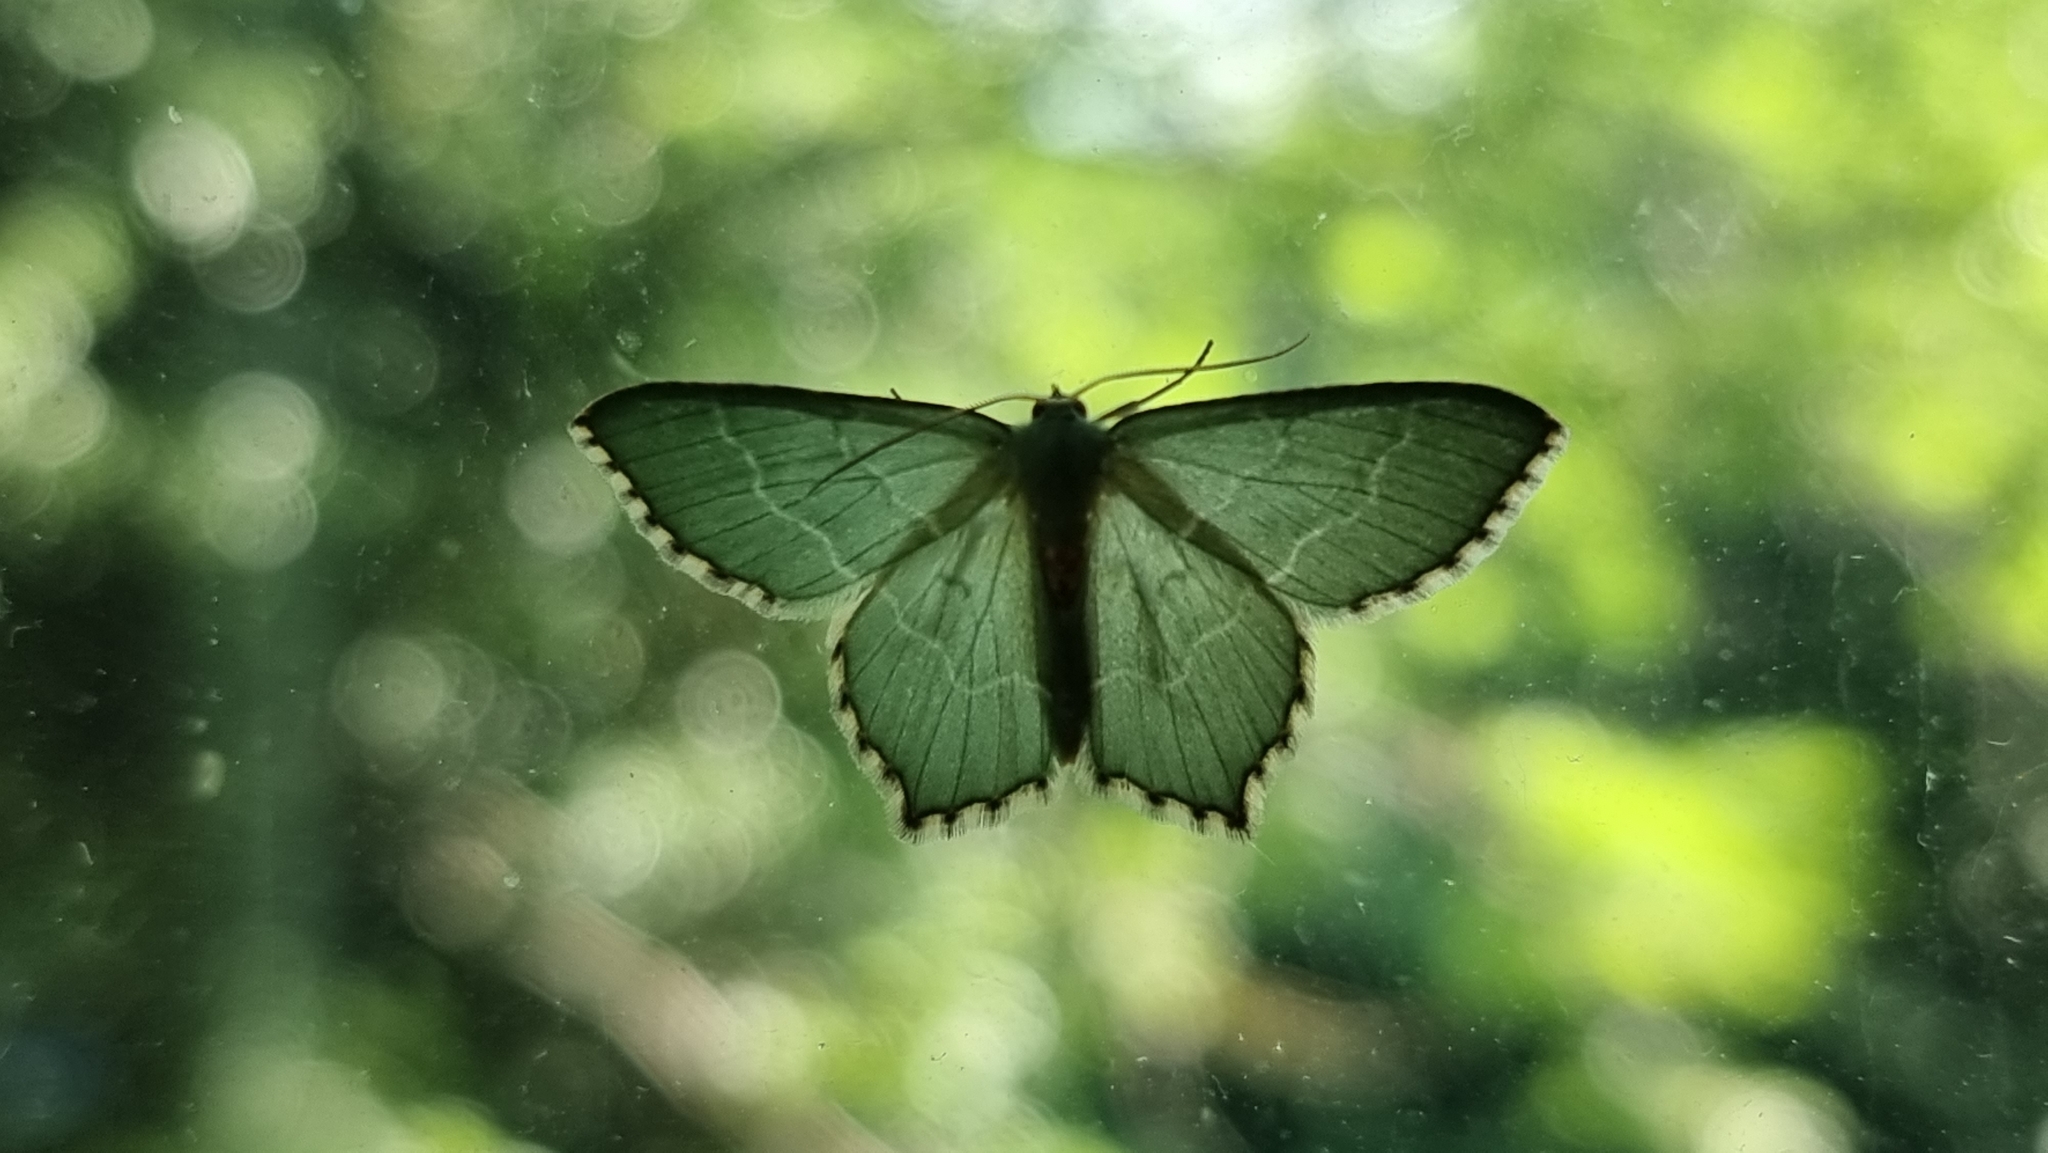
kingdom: Animalia
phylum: Arthropoda
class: Insecta
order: Lepidoptera
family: Geometridae
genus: Hemithea
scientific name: Hemithea aestivaria
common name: Common emerald
